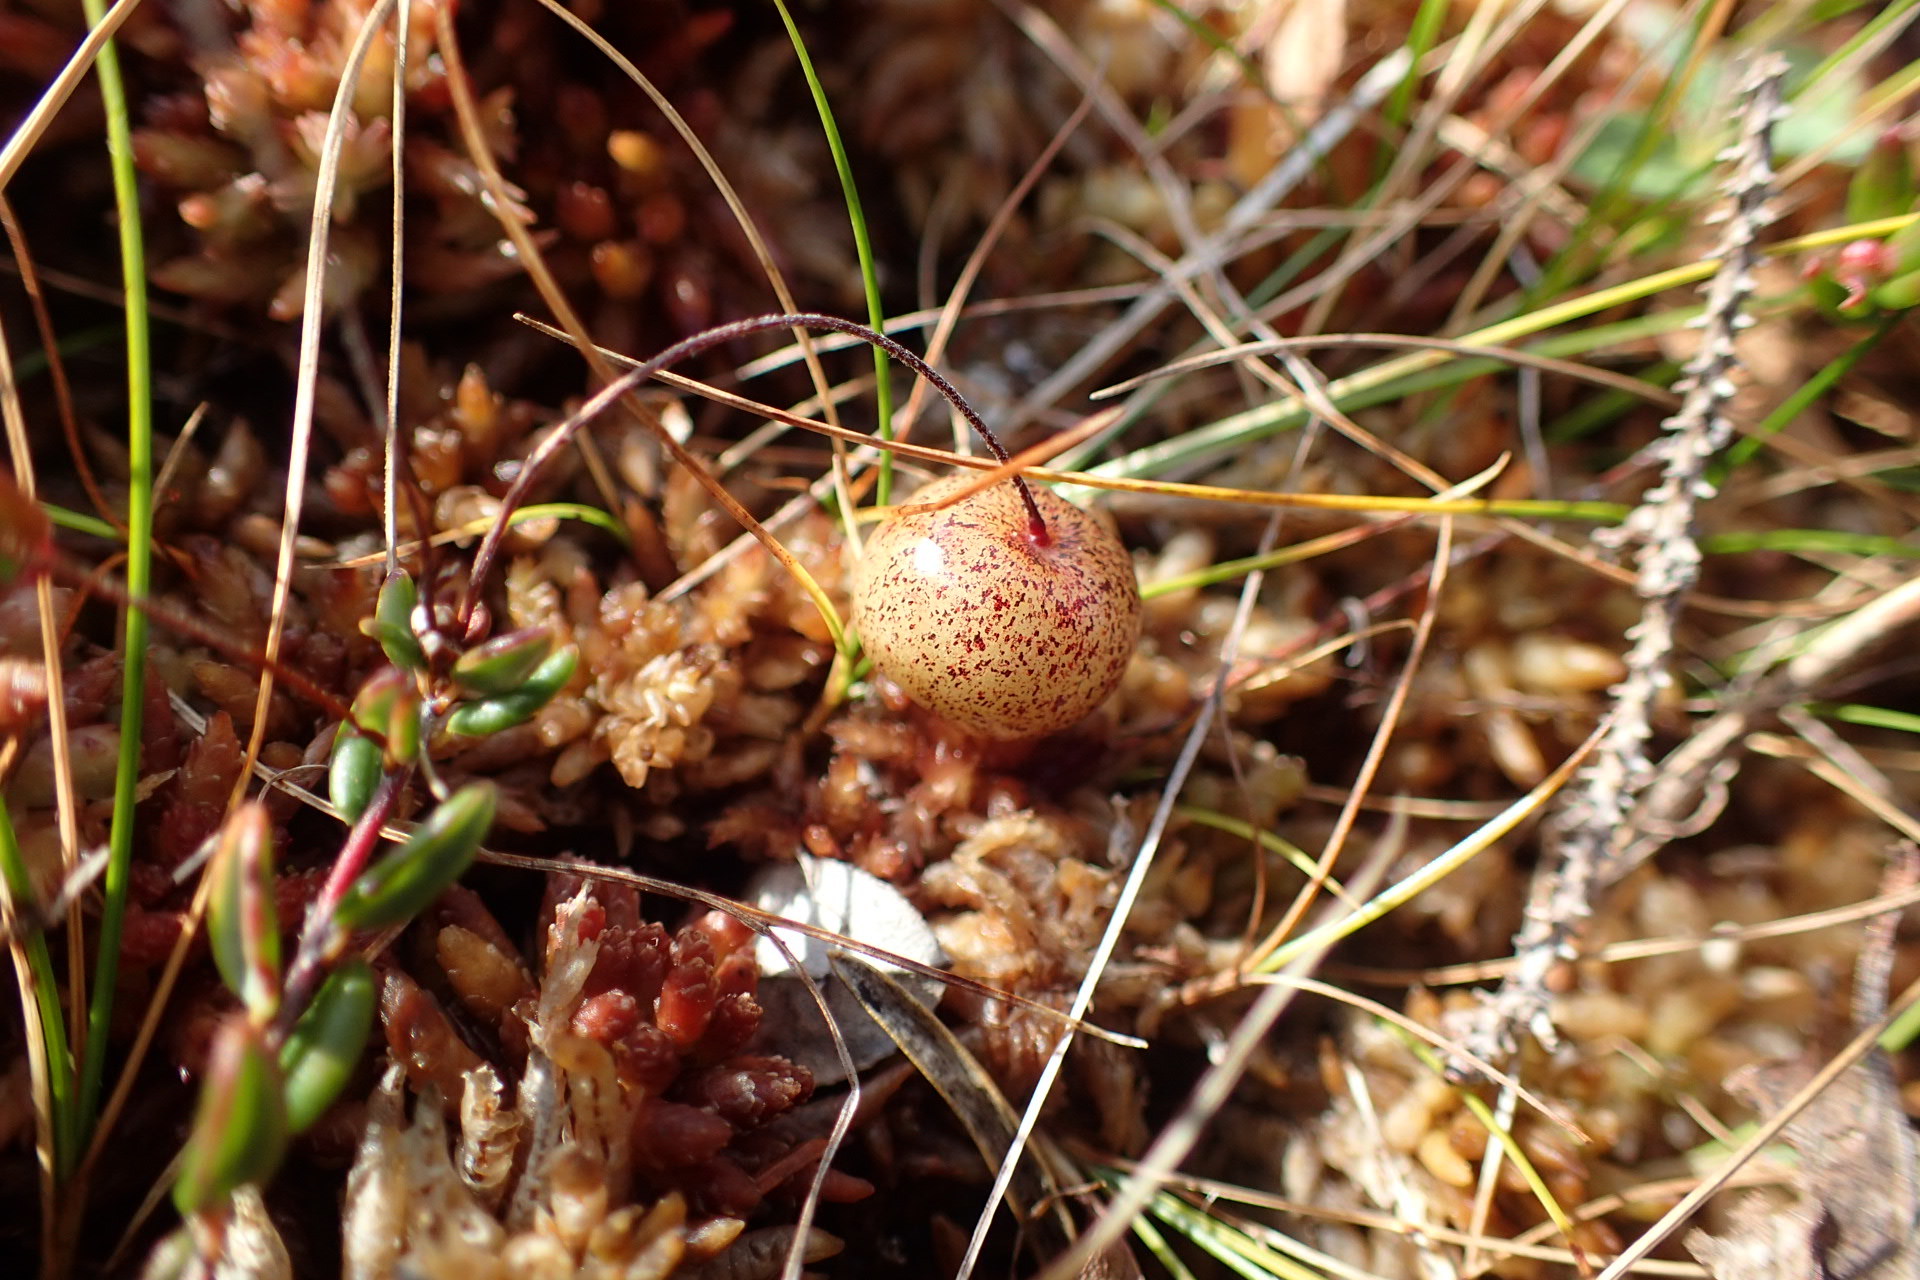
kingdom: Plantae
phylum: Tracheophyta
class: Magnoliopsida
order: Ericales
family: Ericaceae
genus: Vaccinium
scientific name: Vaccinium oxycoccos
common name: Cranberry
